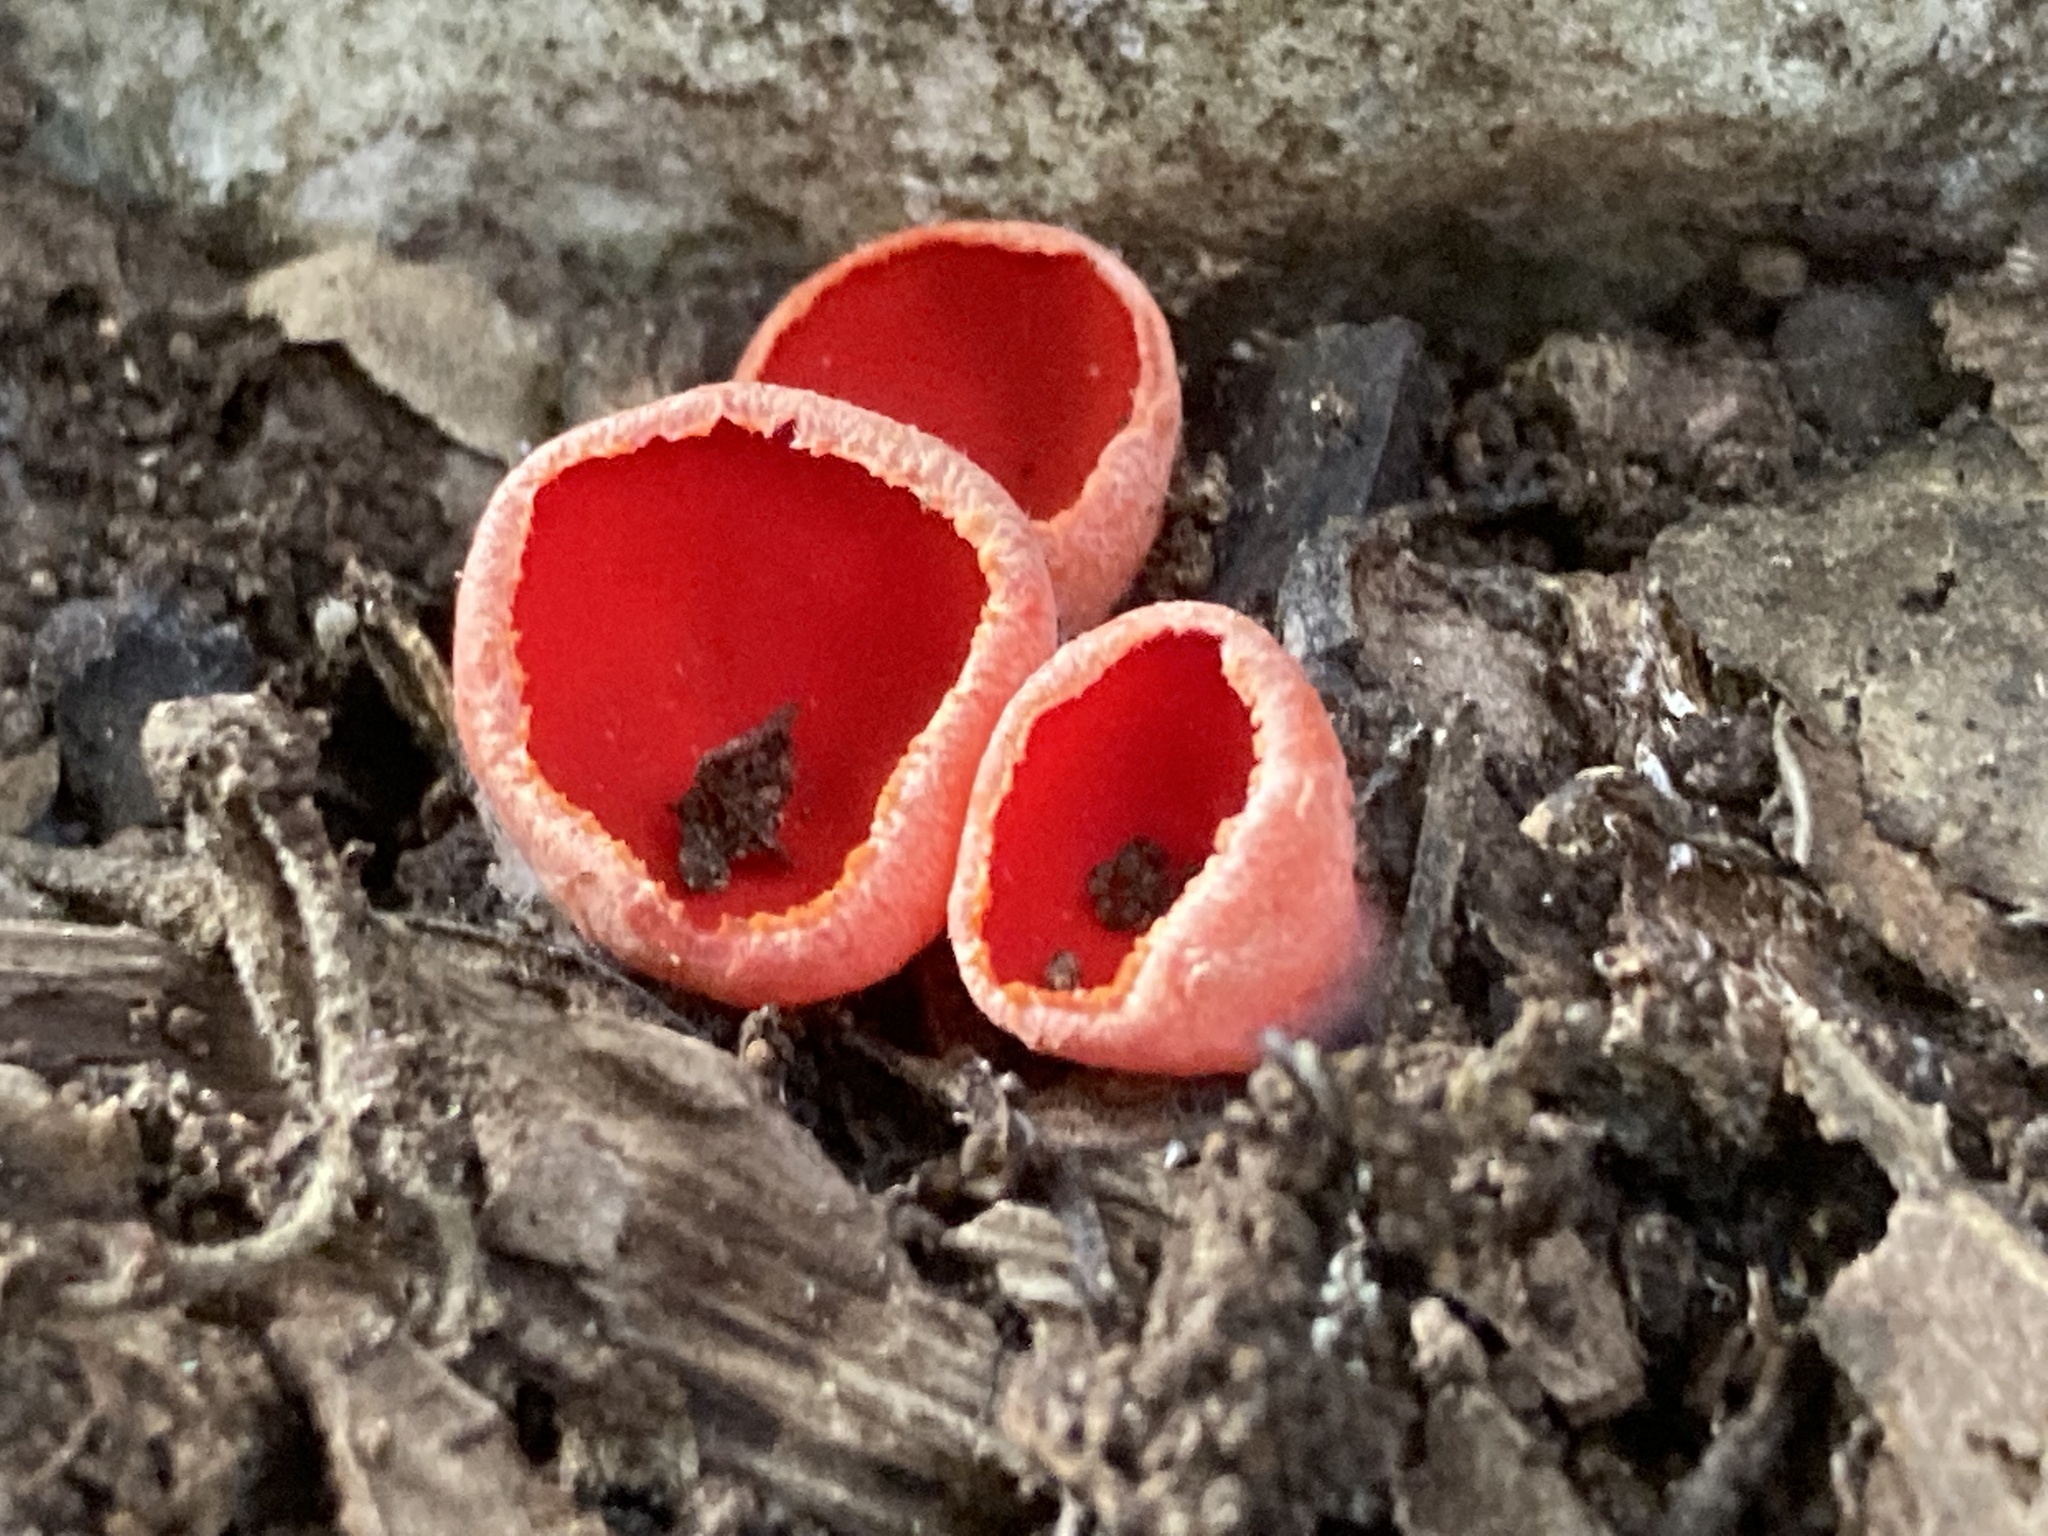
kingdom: Fungi
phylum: Ascomycota
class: Pezizomycetes
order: Pezizales
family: Sarcoscyphaceae
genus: Sarcoscypha
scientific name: Sarcoscypha
